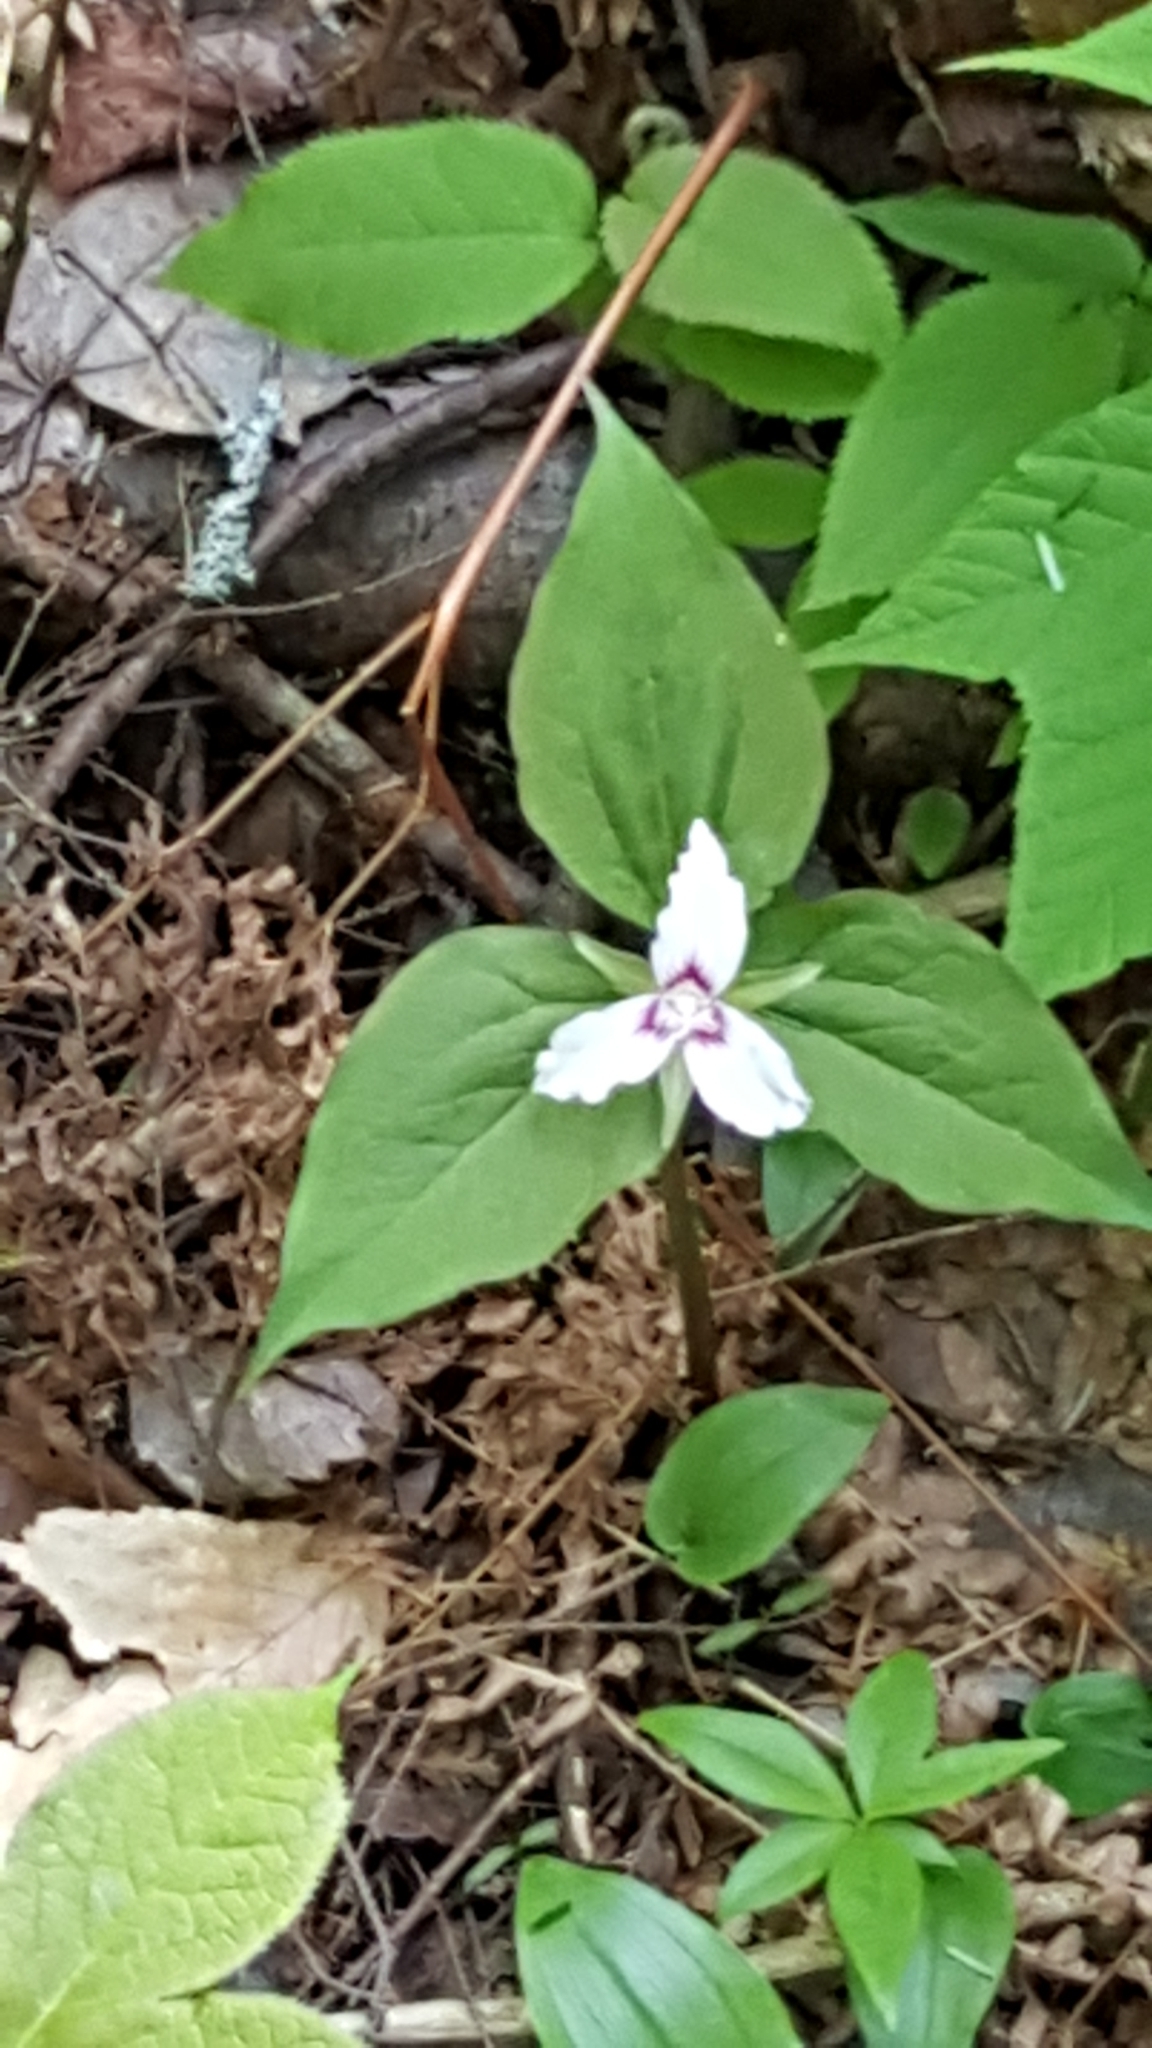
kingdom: Plantae
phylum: Tracheophyta
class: Liliopsida
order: Liliales
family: Melanthiaceae
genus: Trillium
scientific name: Trillium undulatum
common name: Paint trillium
